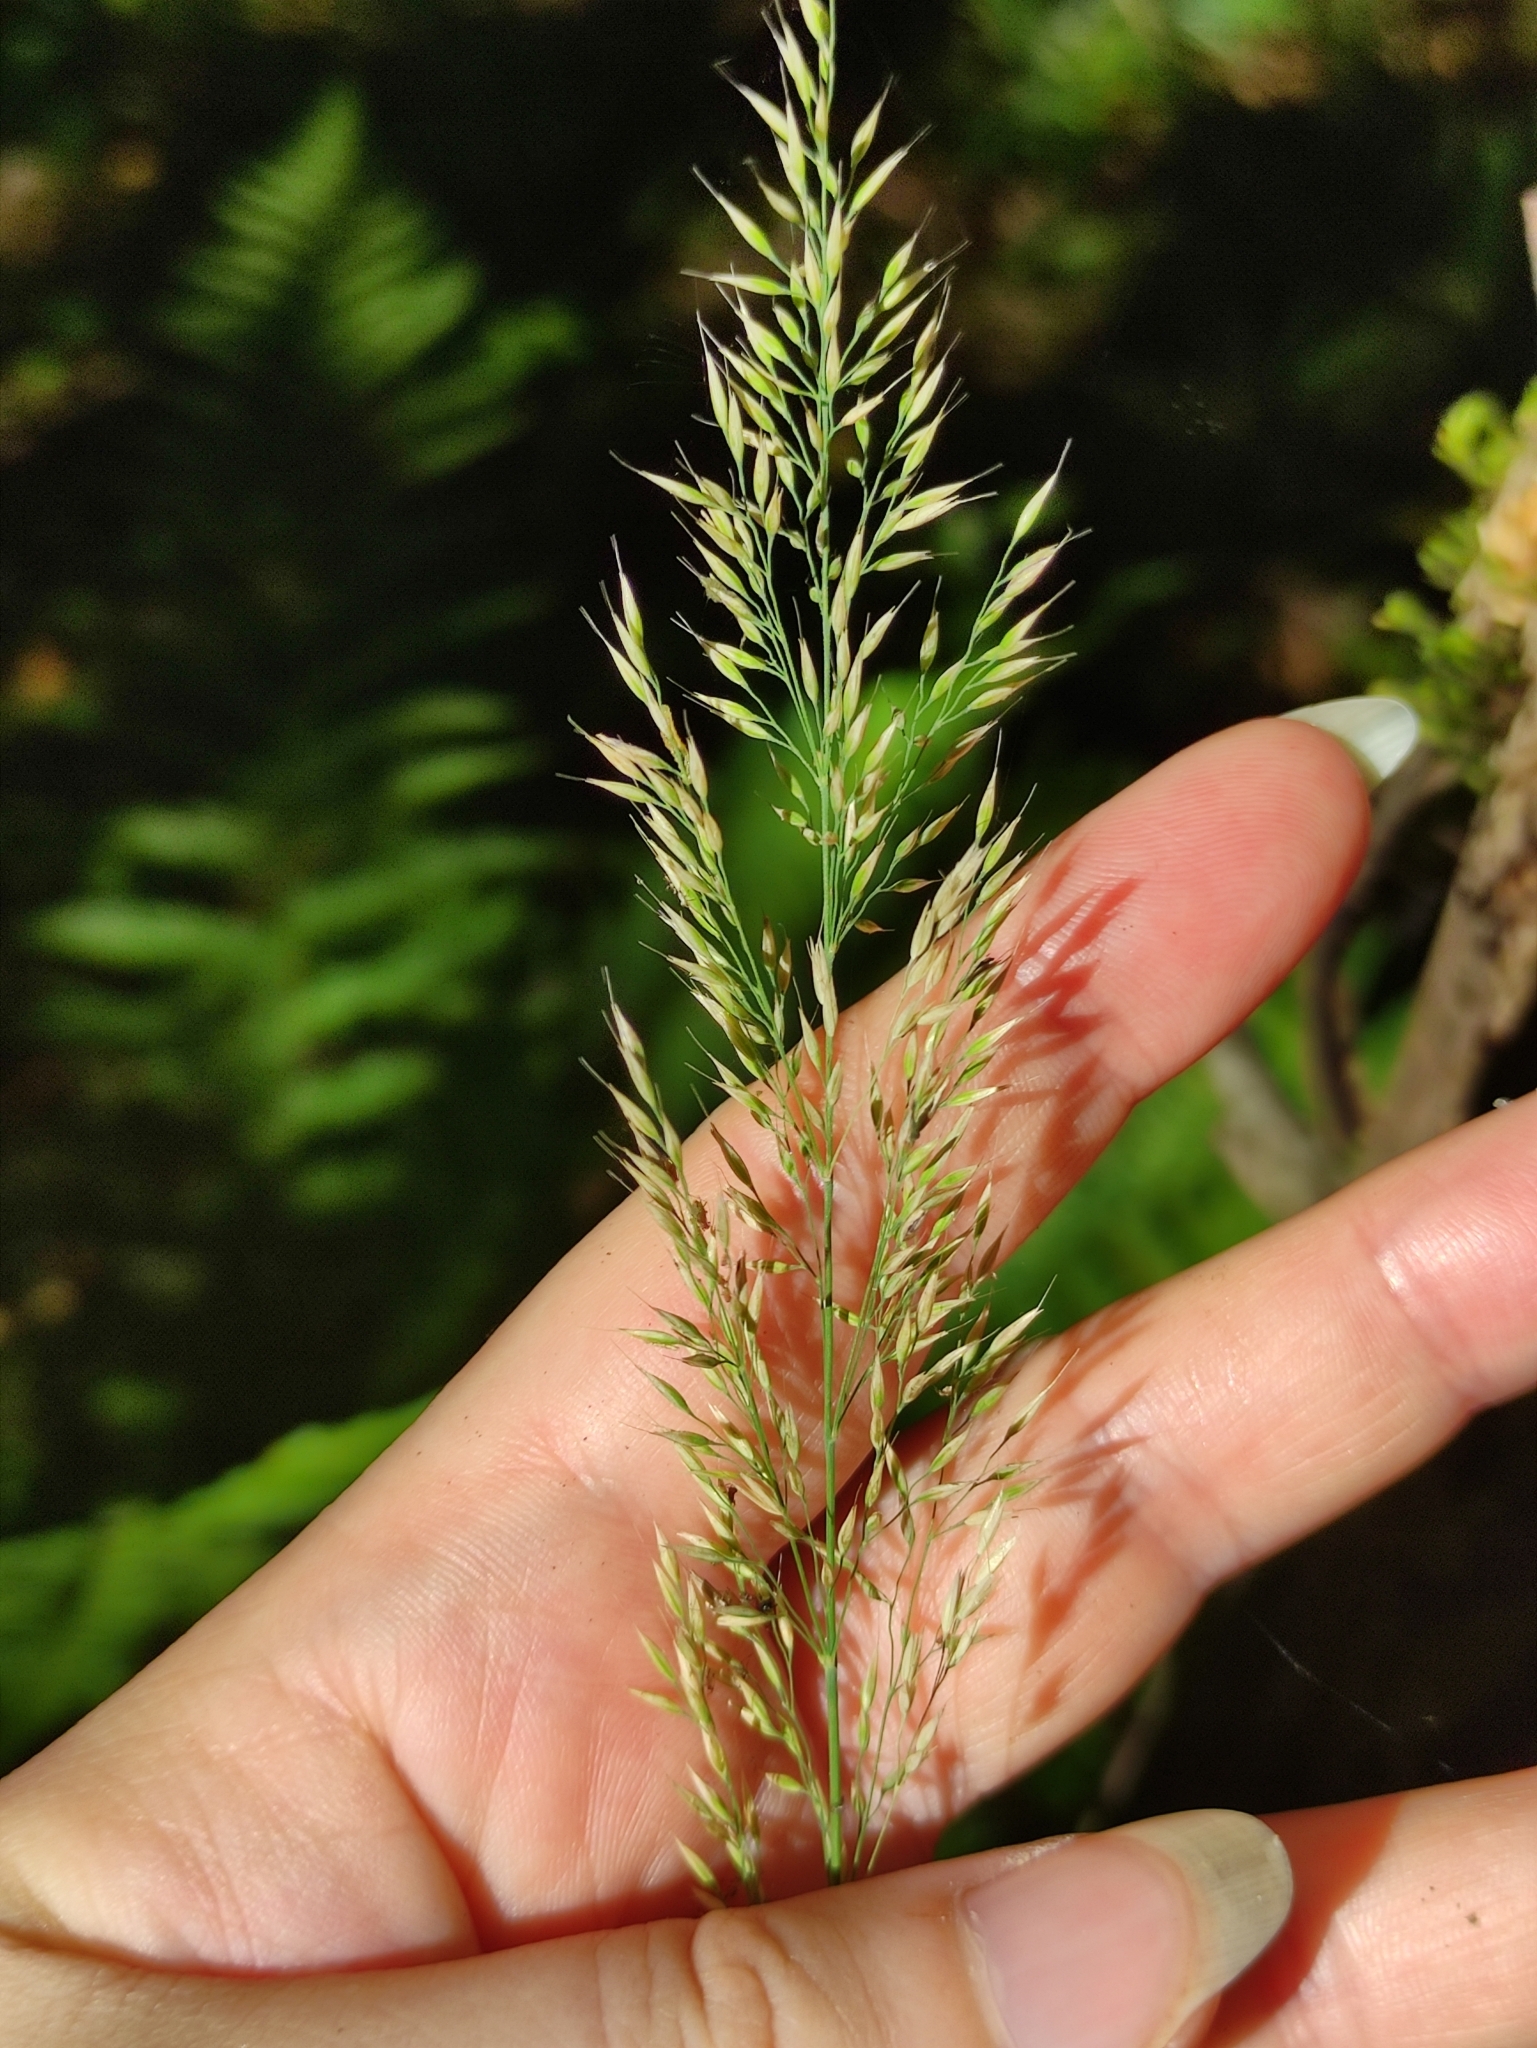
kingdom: Plantae
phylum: Tracheophyta
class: Liliopsida
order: Poales
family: Poaceae
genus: Calamagrostis
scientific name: Calamagrostis arundinacea
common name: Metskastik
